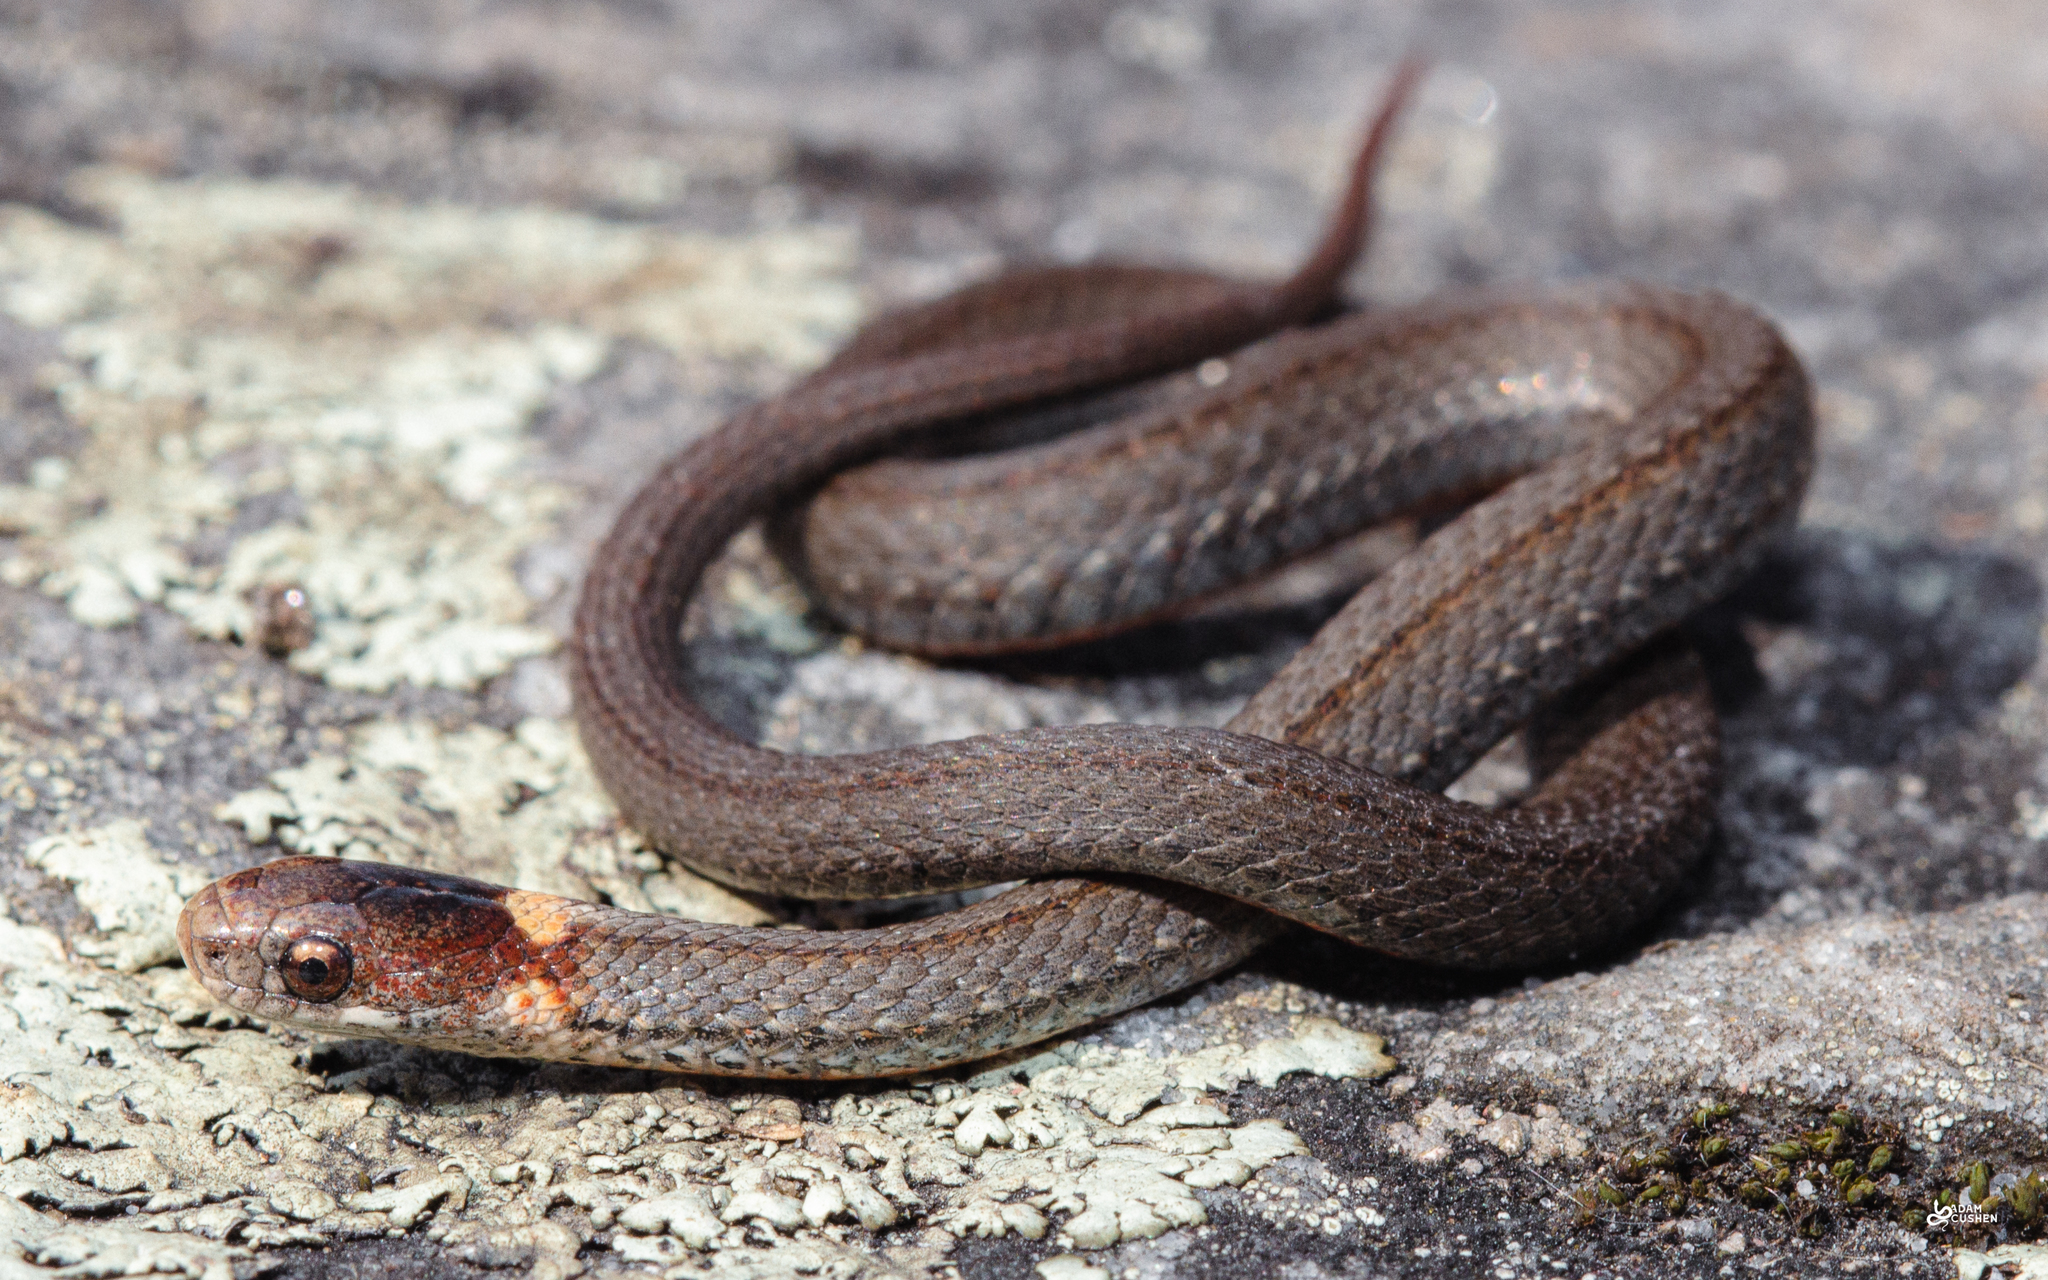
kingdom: Animalia
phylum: Chordata
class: Squamata
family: Colubridae
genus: Storeria
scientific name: Storeria occipitomaculata
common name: Redbelly snake
